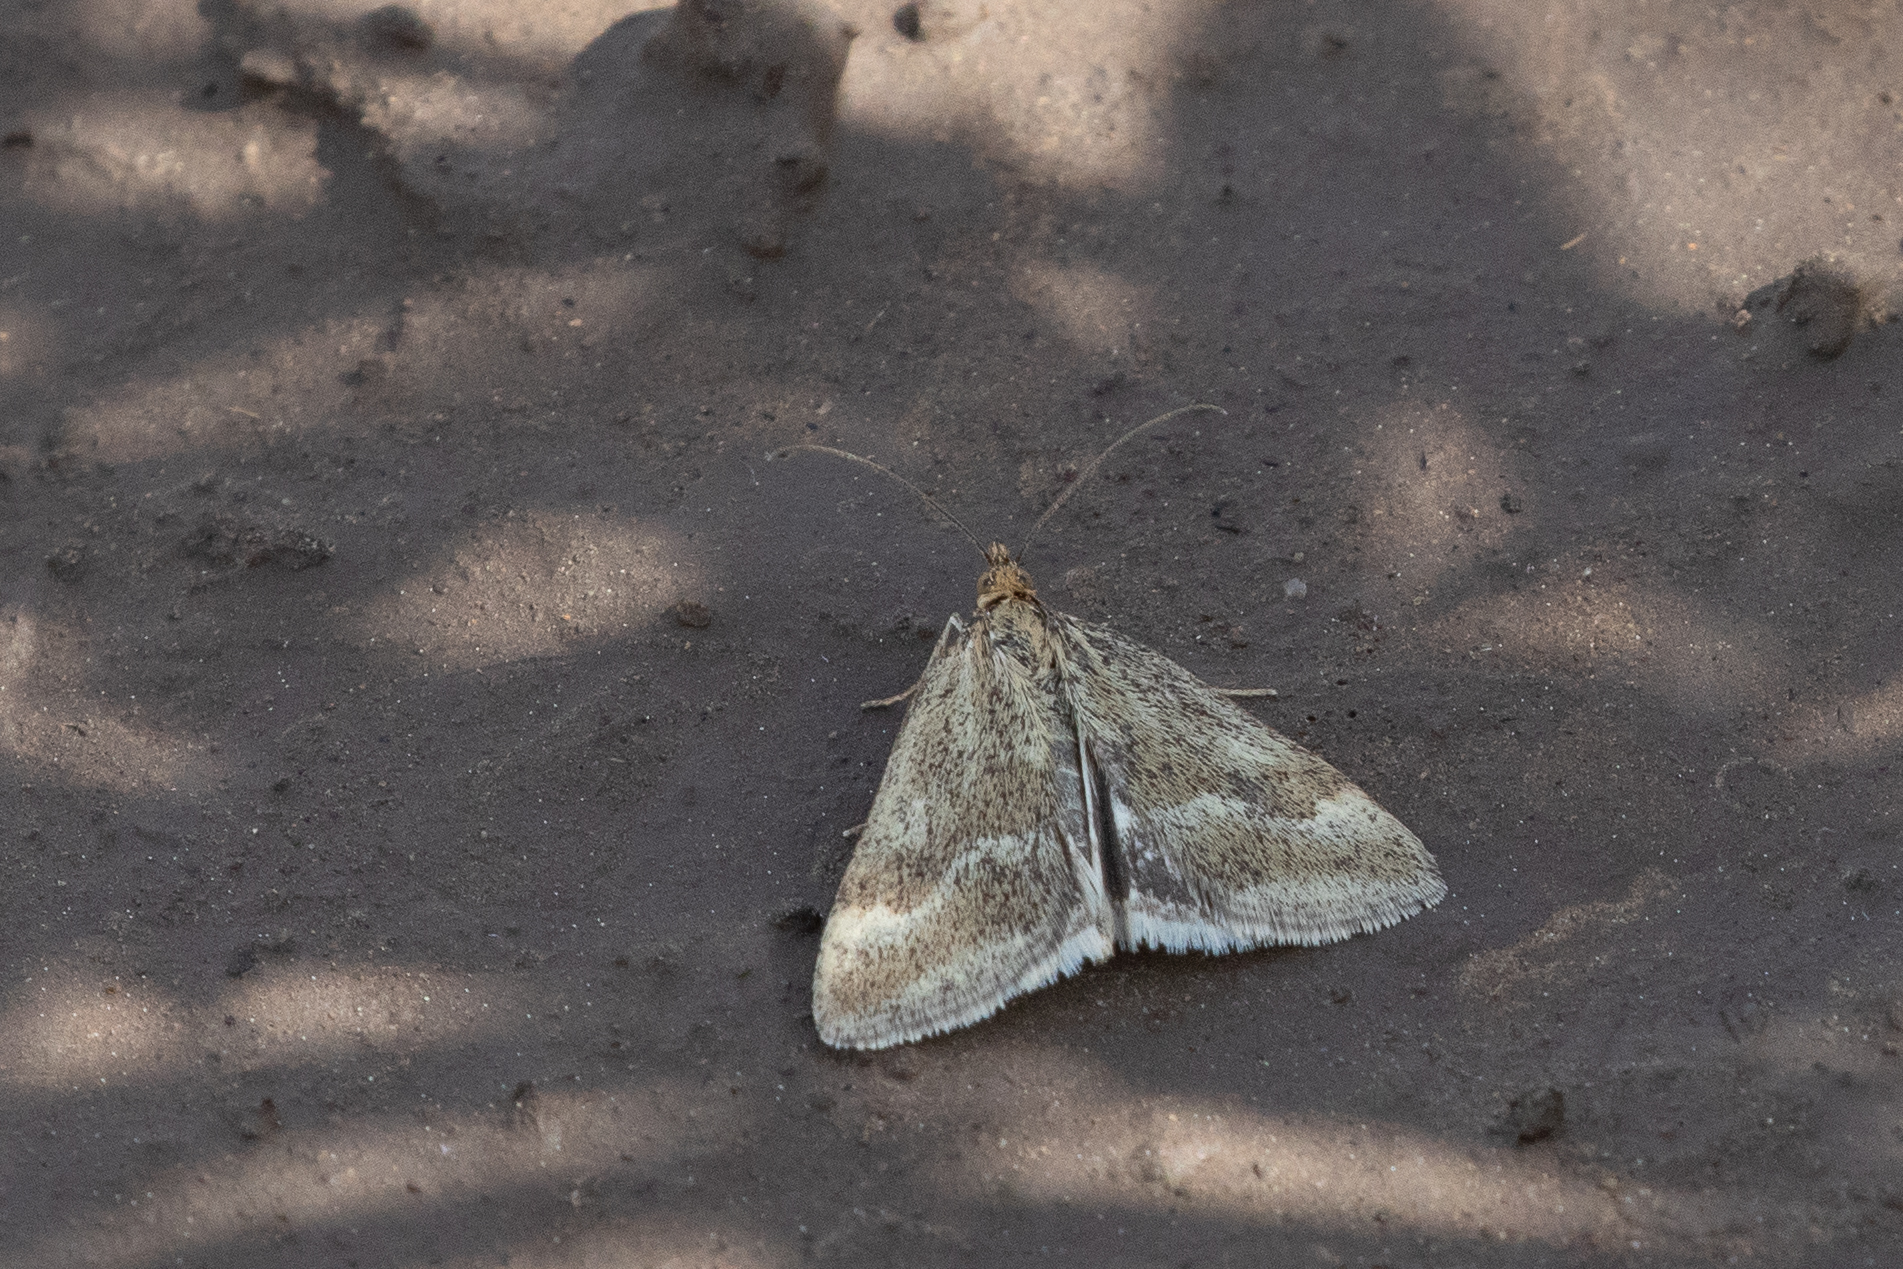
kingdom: Animalia
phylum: Arthropoda
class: Insecta
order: Lepidoptera
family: Crambidae
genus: Pyrausta
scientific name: Pyrausta unifascialis
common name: One-banded pyrausta
